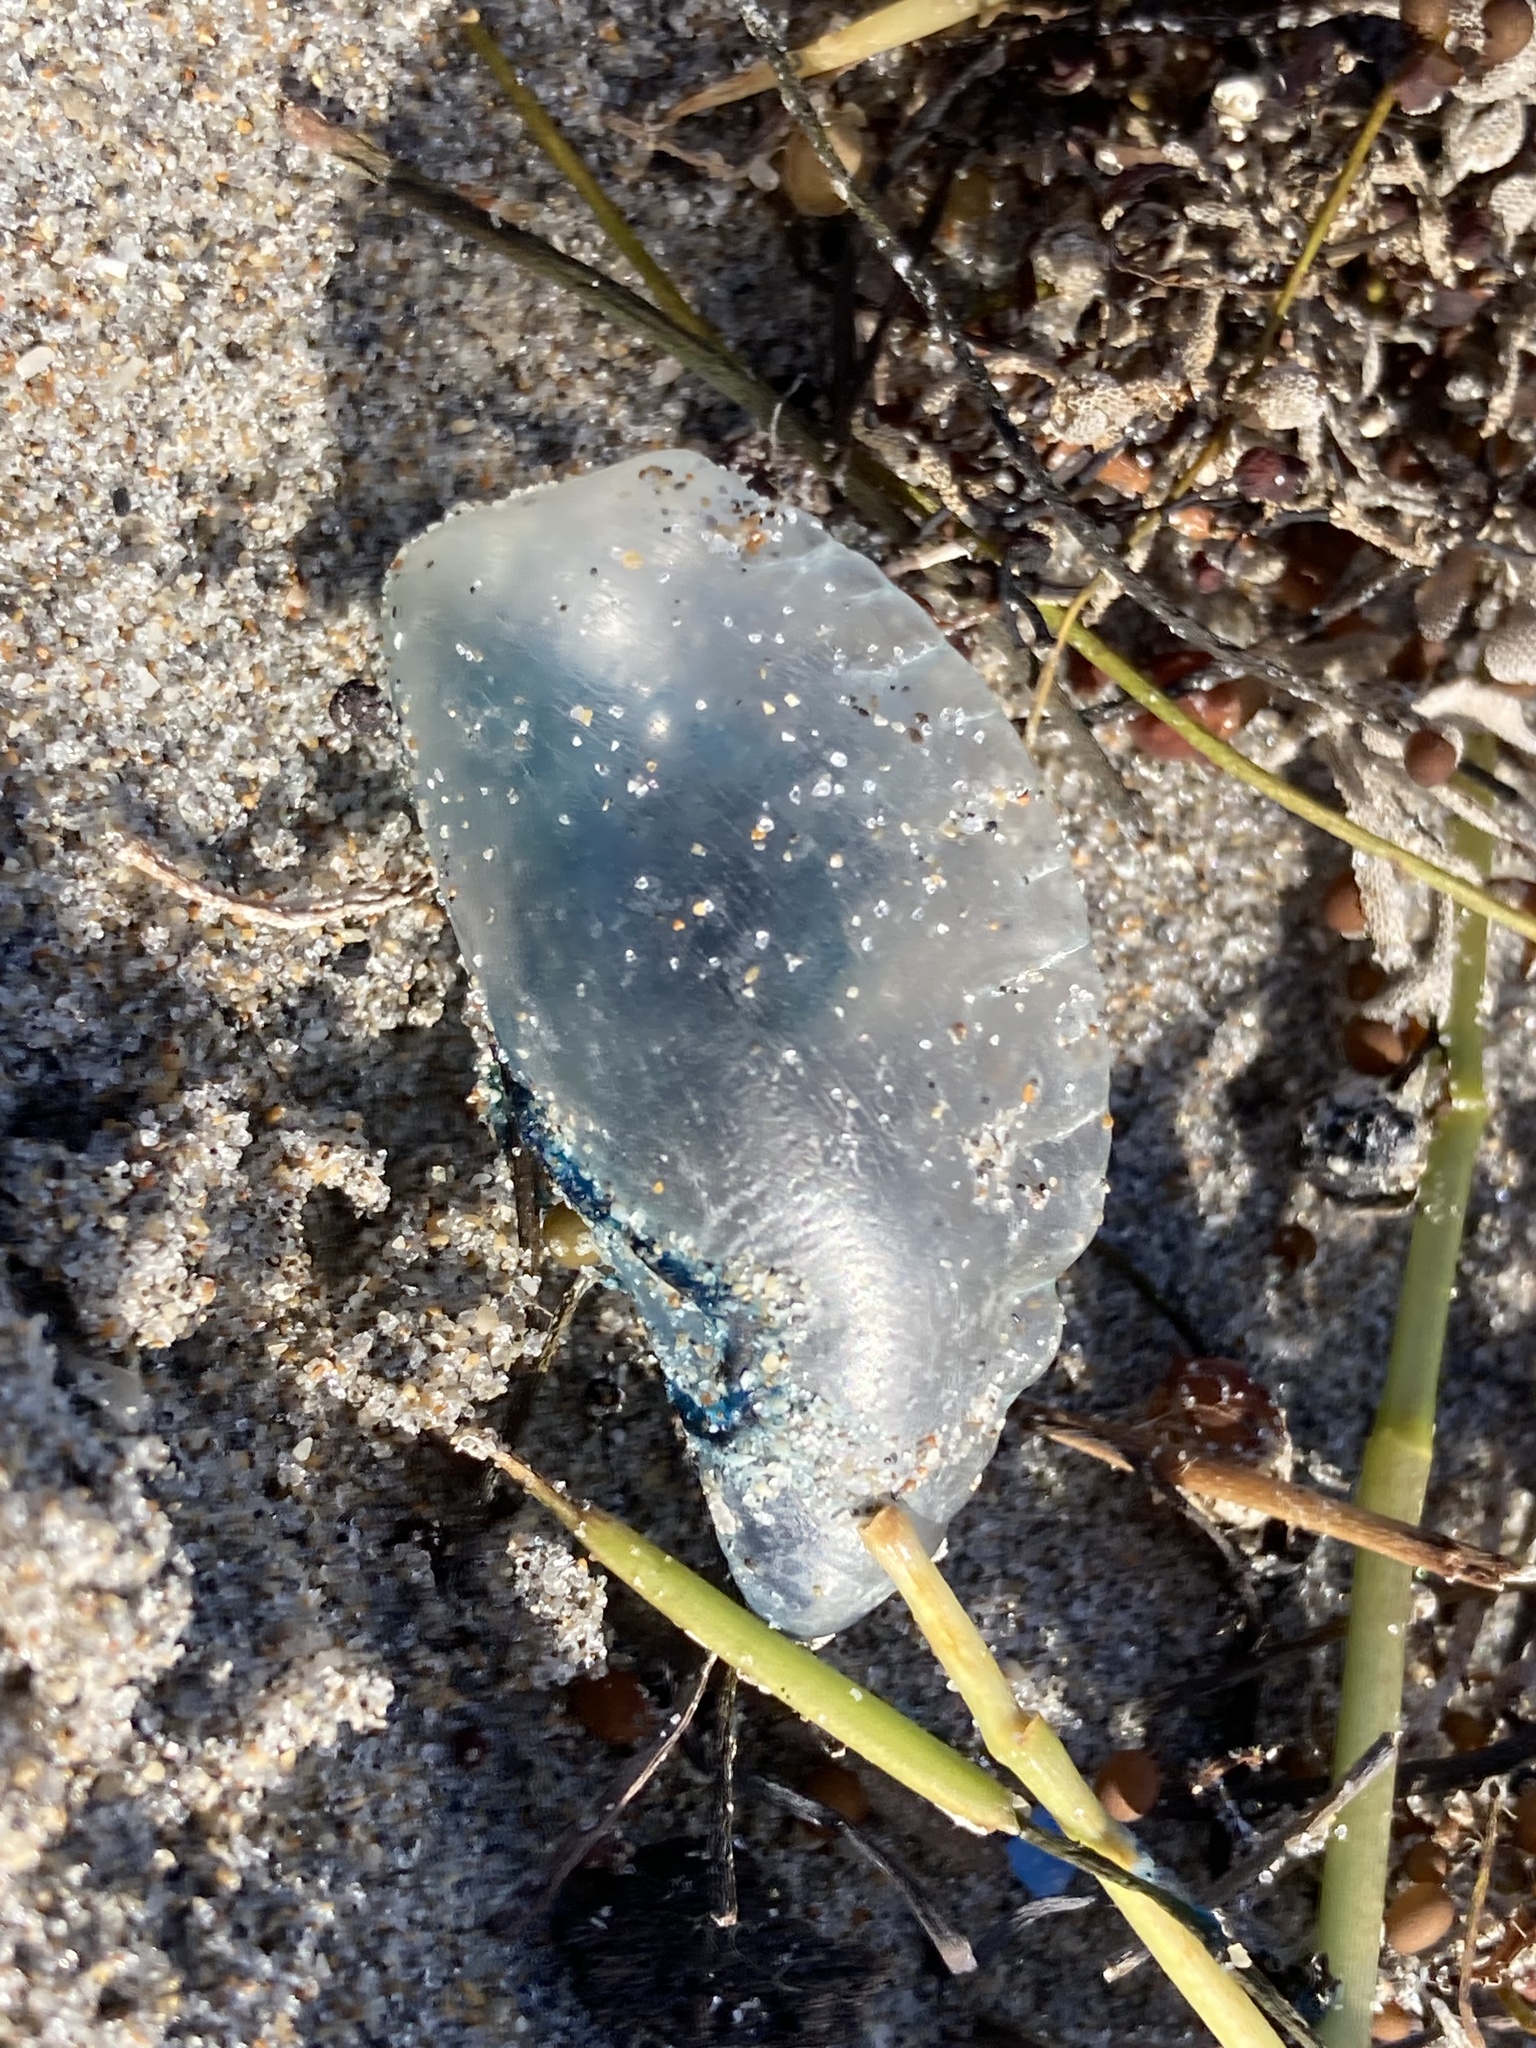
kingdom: Animalia
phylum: Cnidaria
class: Hydrozoa
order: Siphonophorae
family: Physaliidae
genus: Physalia
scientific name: Physalia physalis
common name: Portuguese man-of-war
